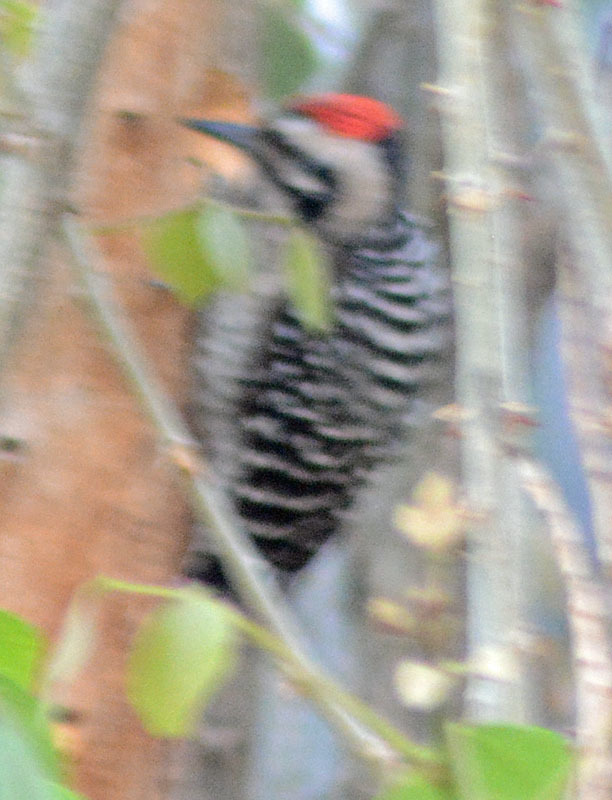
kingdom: Animalia
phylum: Chordata
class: Aves
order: Piciformes
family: Picidae
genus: Dryobates
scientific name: Dryobates scalaris
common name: Ladder-backed woodpecker
